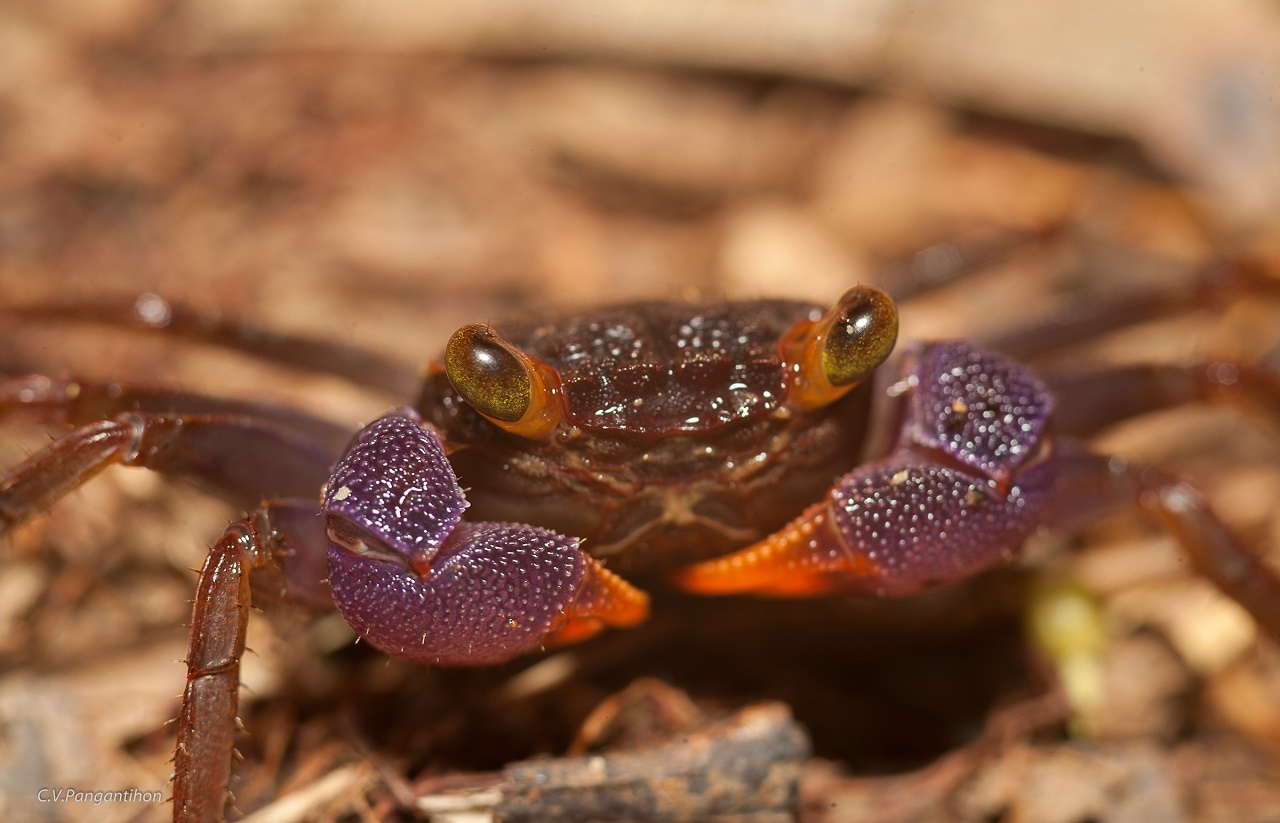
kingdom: Animalia
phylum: Arthropoda
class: Malacostraca
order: Decapoda
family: Sesarmidae
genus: Geosesarma
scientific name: Geosesarma spectrum
